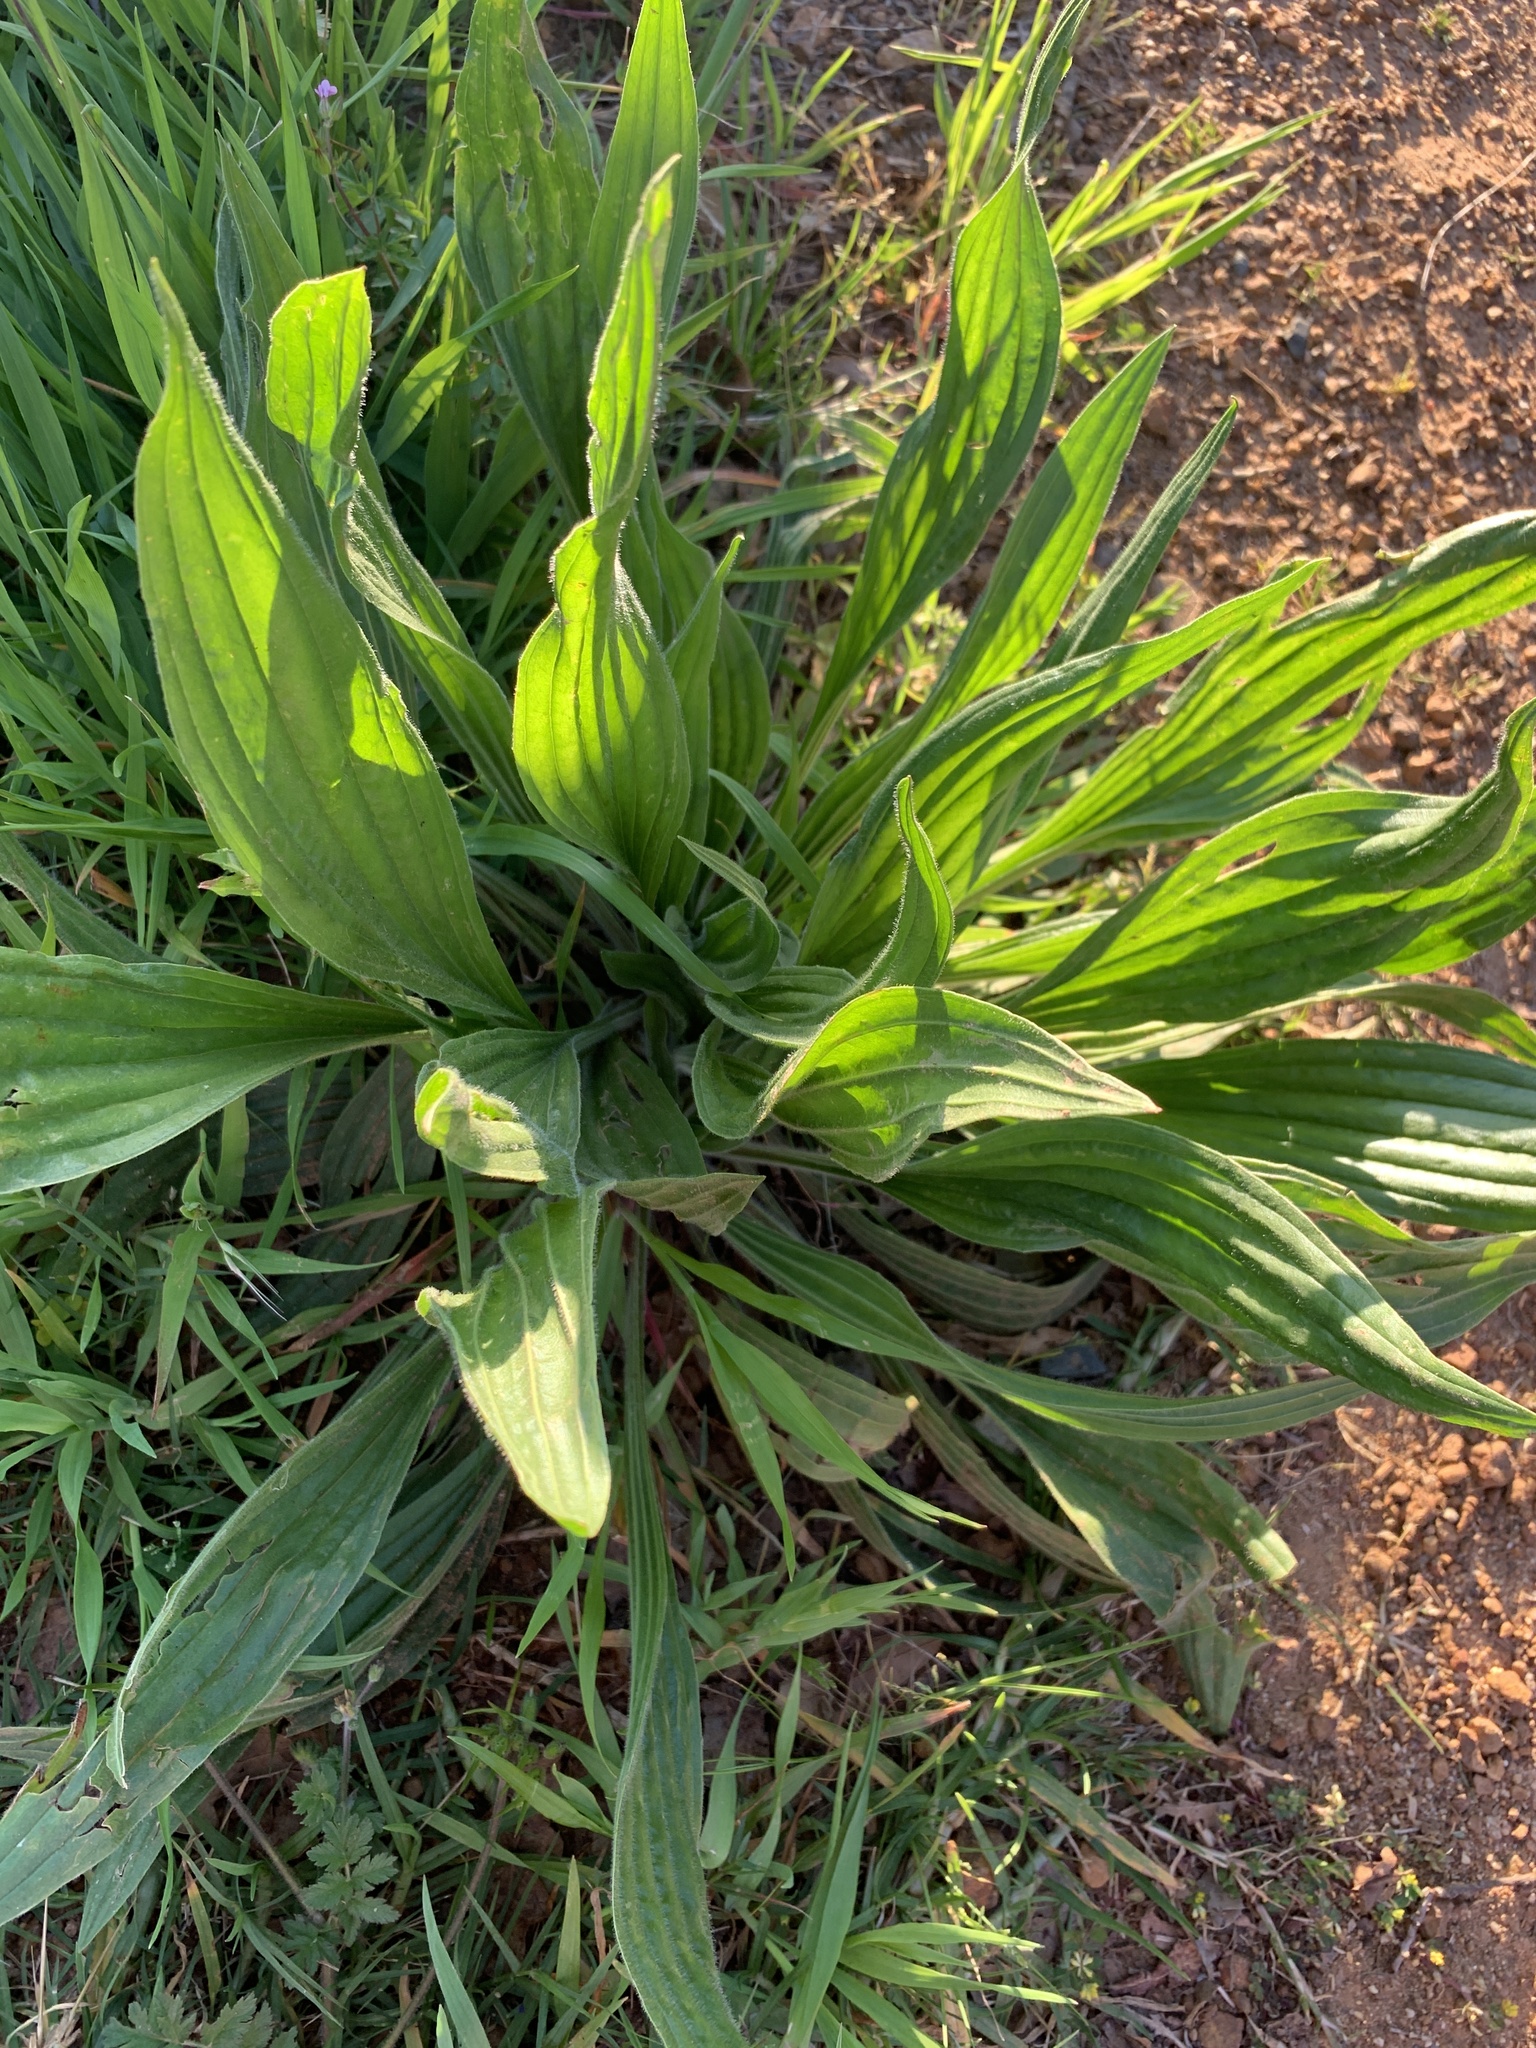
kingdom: Plantae
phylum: Tracheophyta
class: Magnoliopsida
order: Lamiales
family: Plantaginaceae
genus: Plantago
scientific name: Plantago lanceolata
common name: Ribwort plantain
